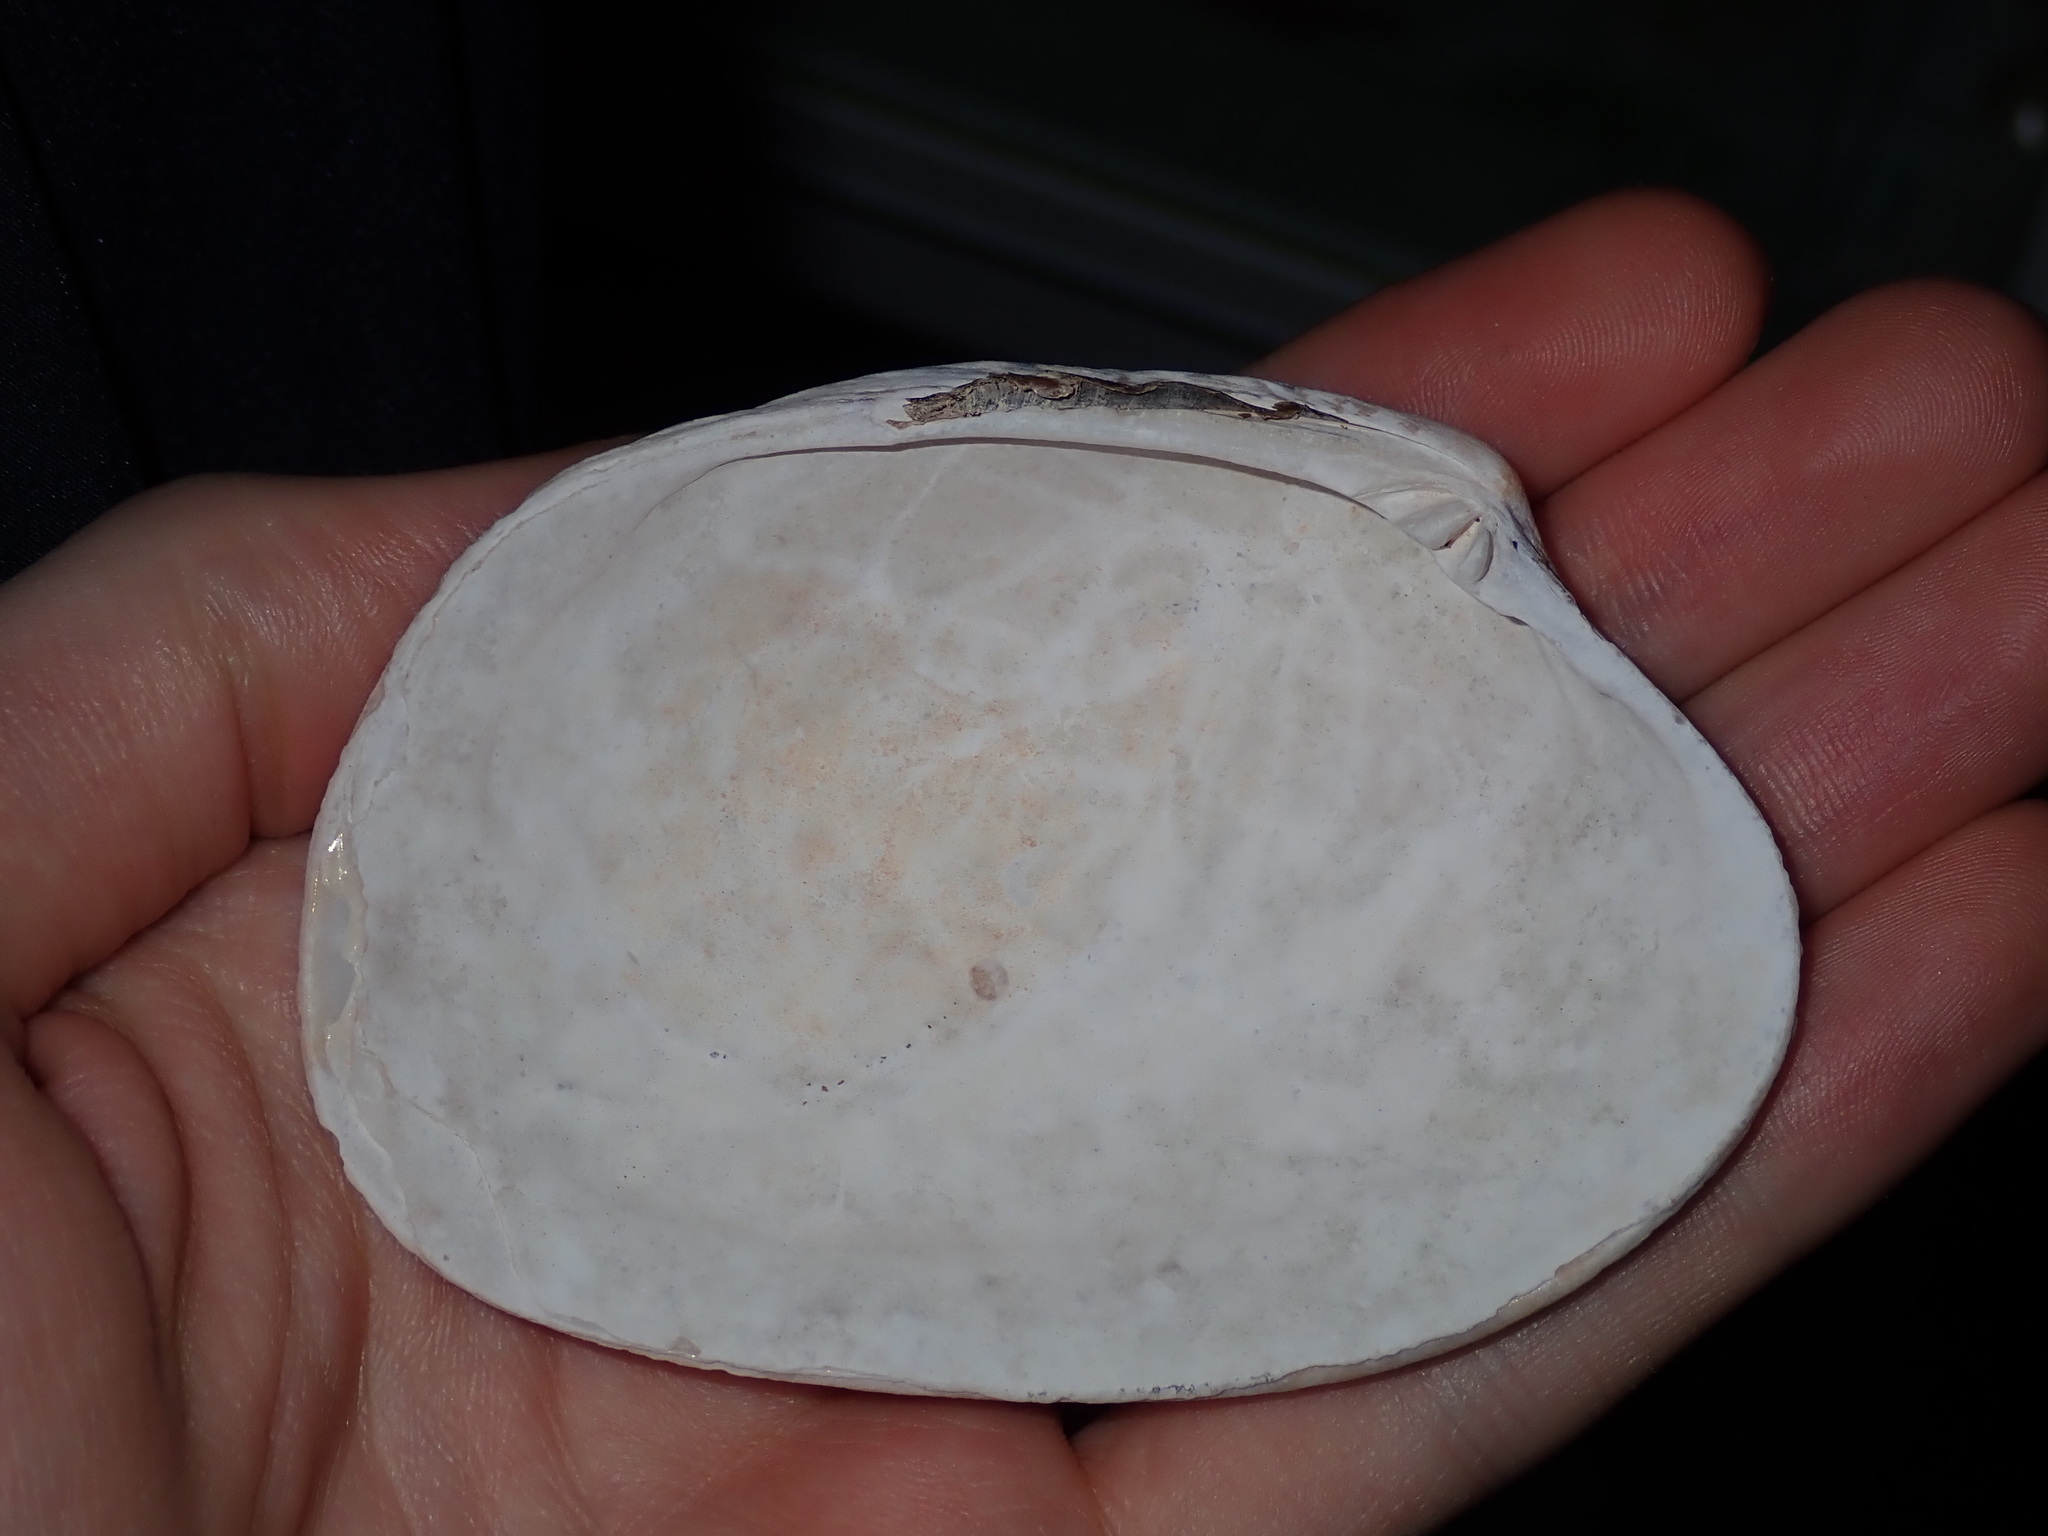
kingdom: Animalia
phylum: Mollusca
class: Bivalvia
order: Venerida
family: Veneridae
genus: Tapes
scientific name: Tapes conspersus
